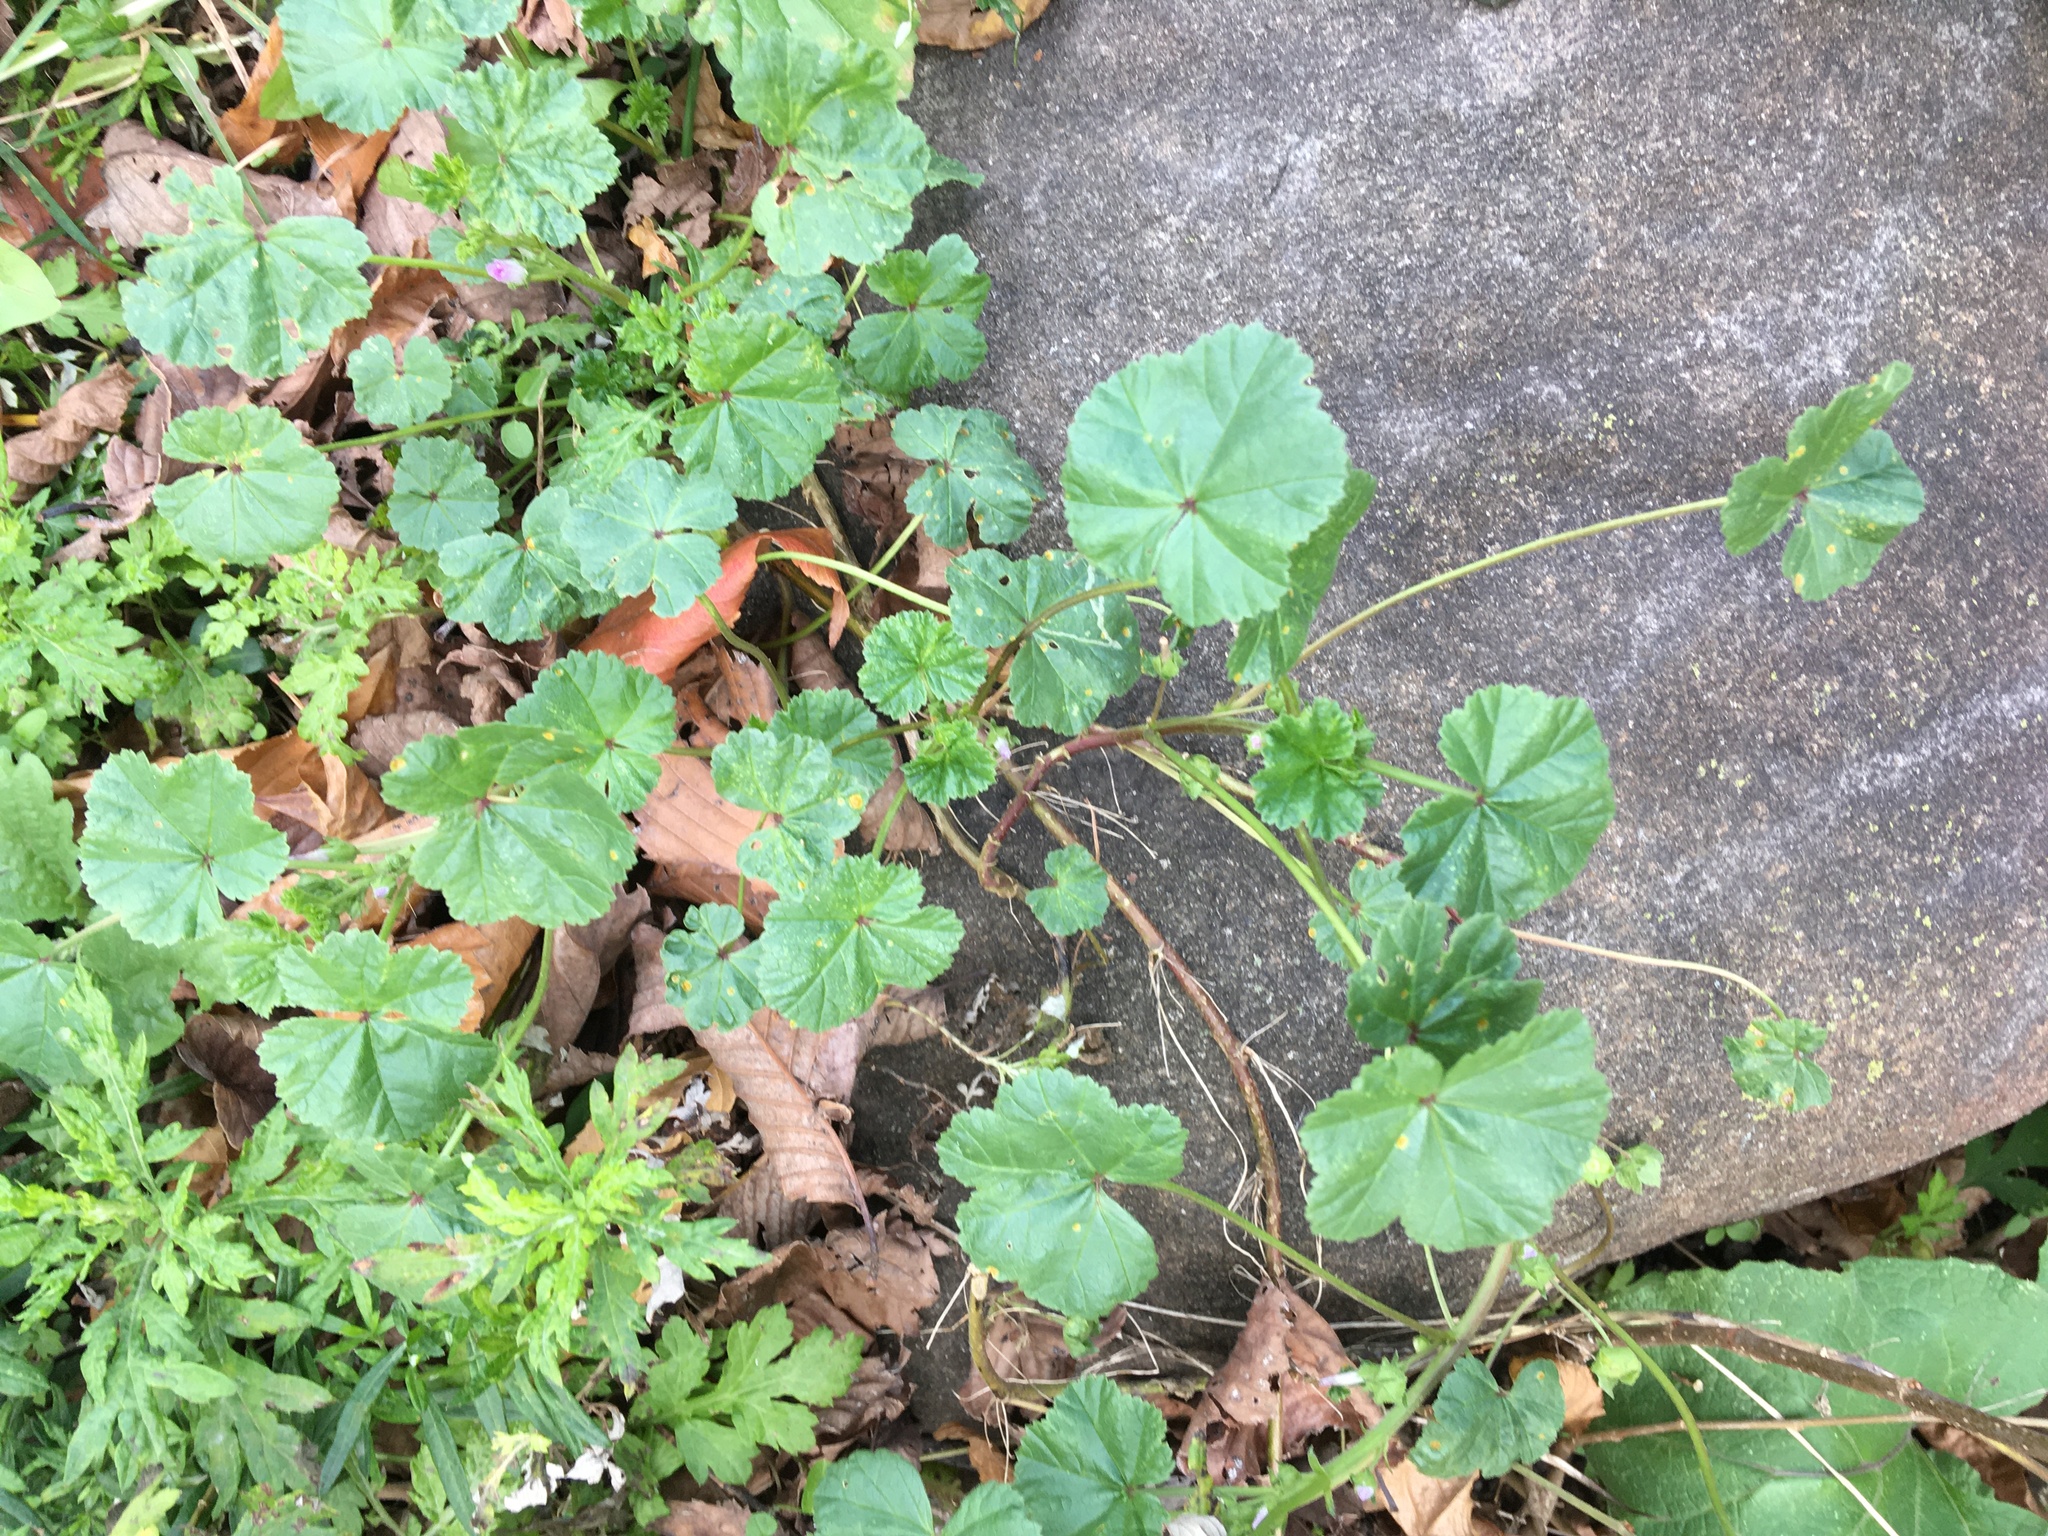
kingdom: Plantae
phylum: Tracheophyta
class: Magnoliopsida
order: Malvales
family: Malvaceae
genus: Malva
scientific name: Malva neglecta
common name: Common mallow
